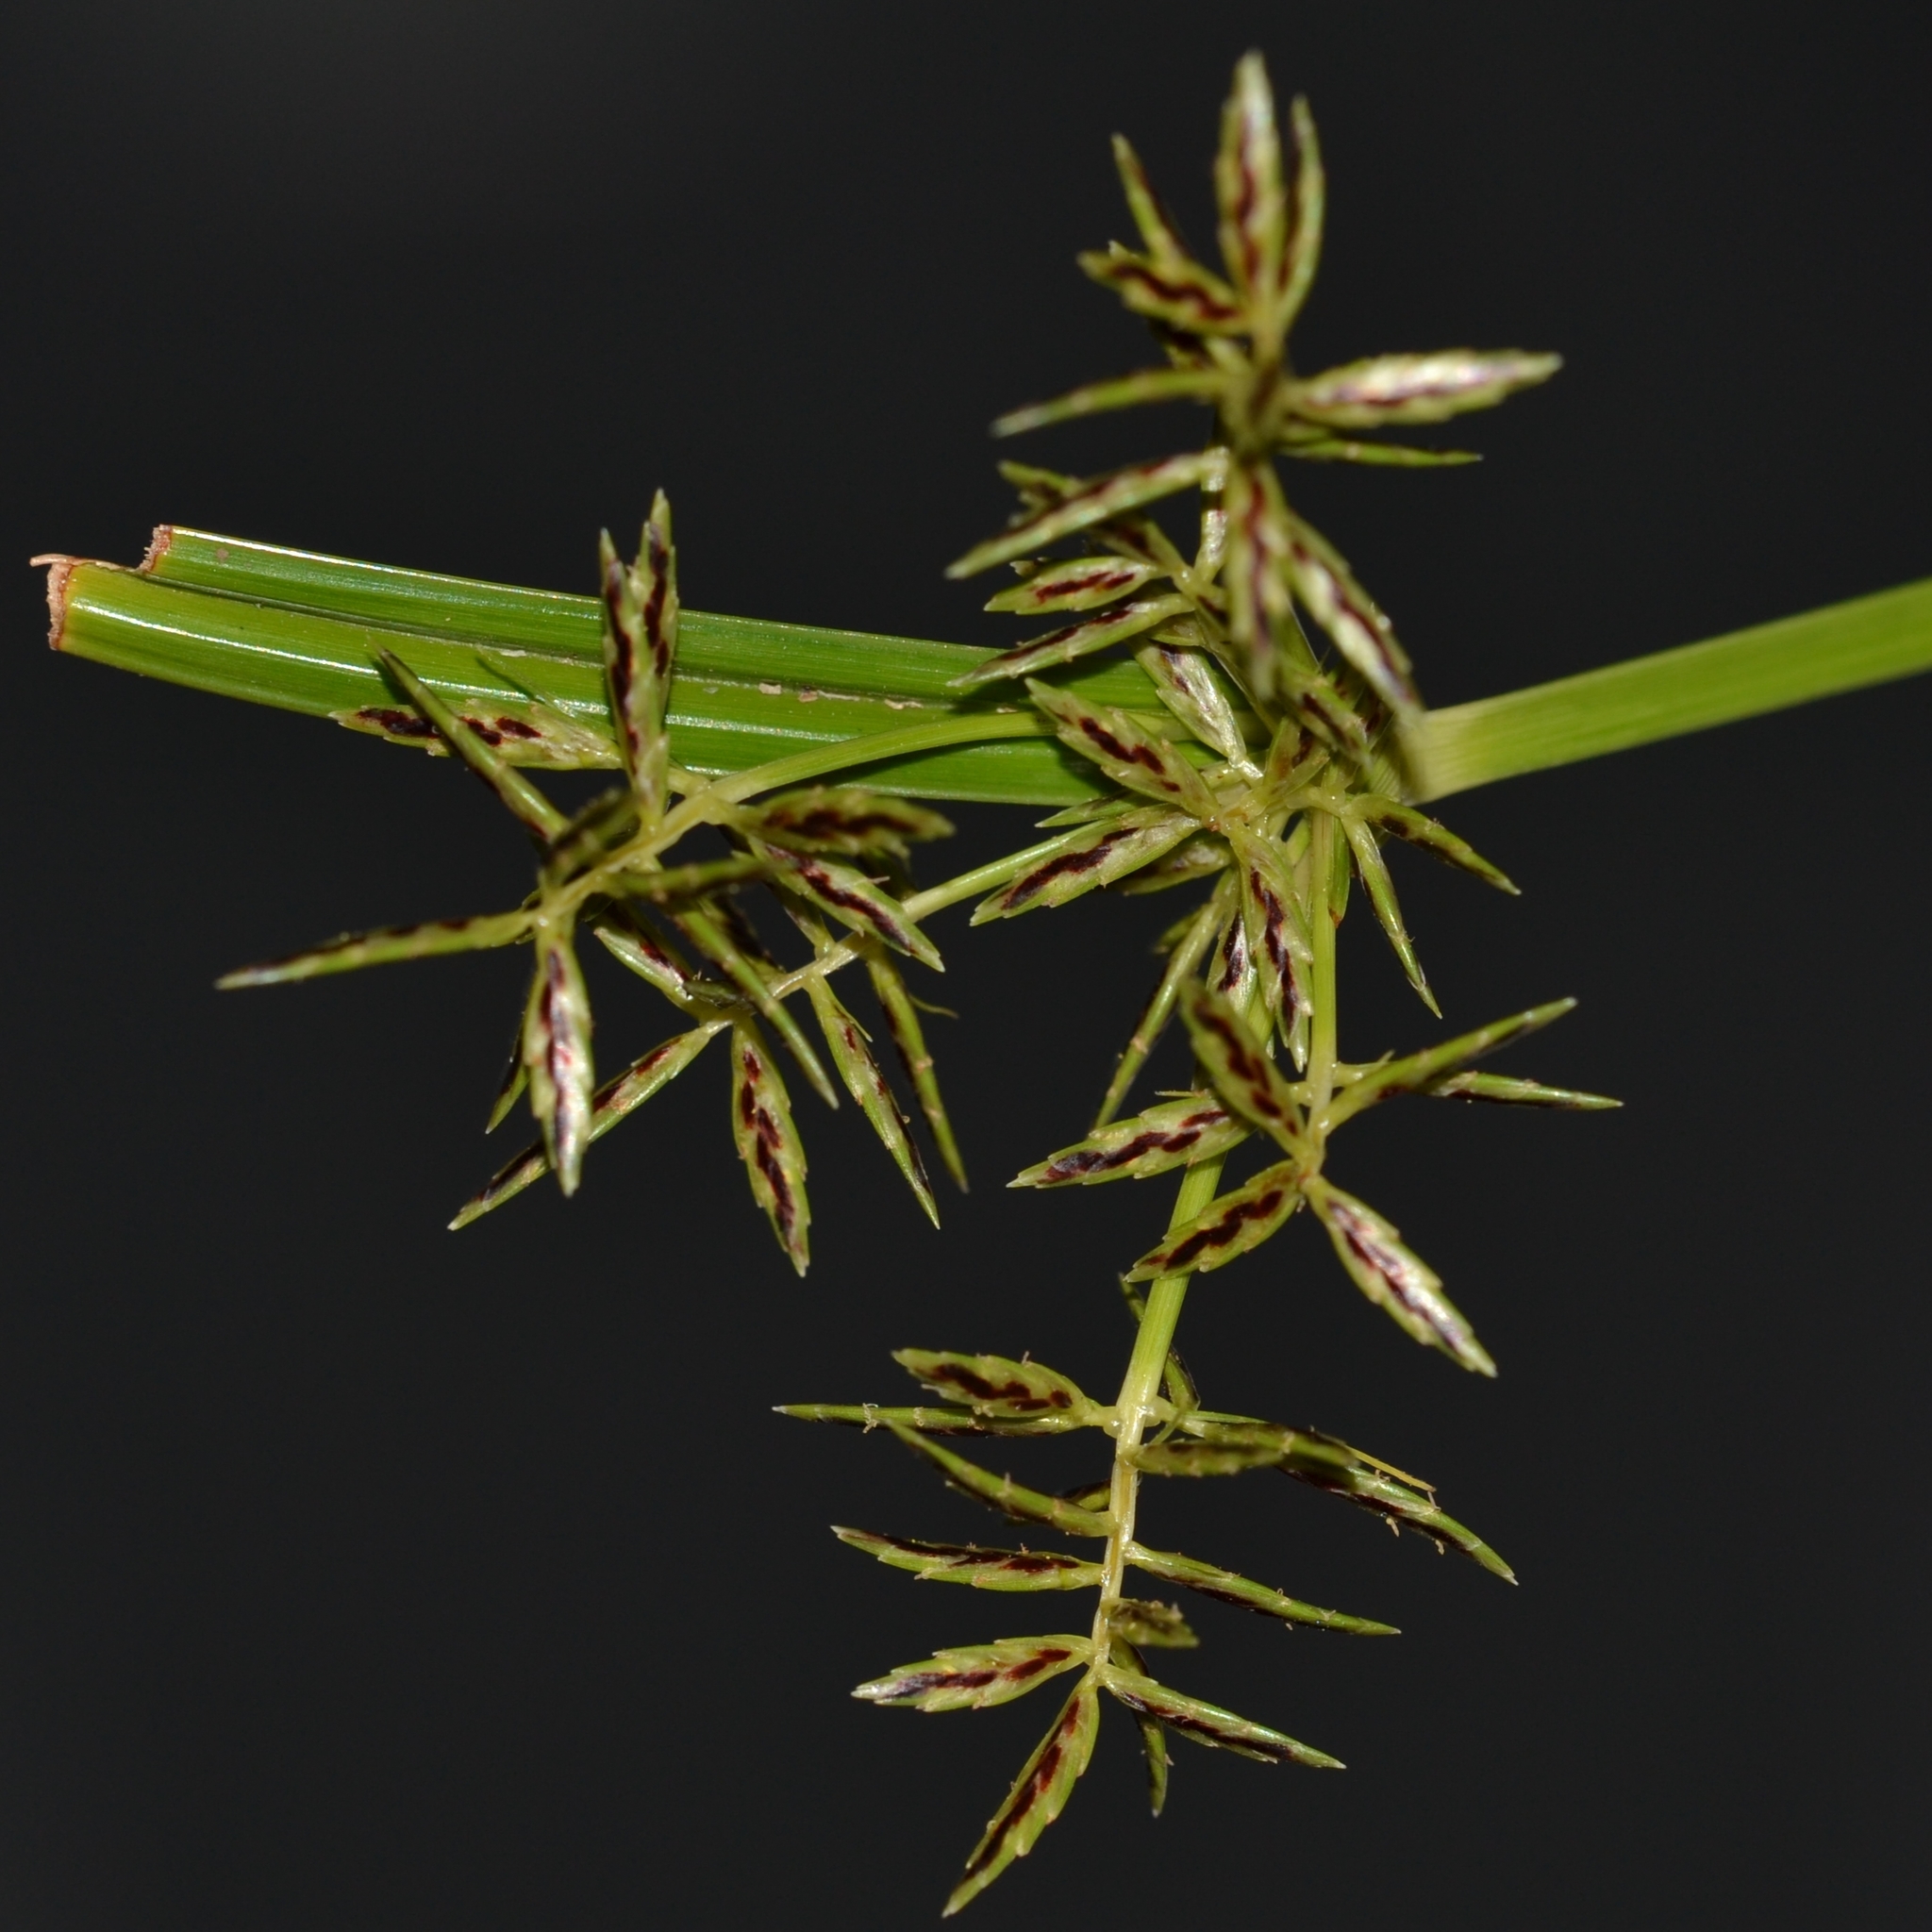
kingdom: Plantae
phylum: Tracheophyta
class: Liliopsida
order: Poales
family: Cyperaceae
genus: Cyperus
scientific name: Cyperus sphacelatus
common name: Roadside flatsedge
